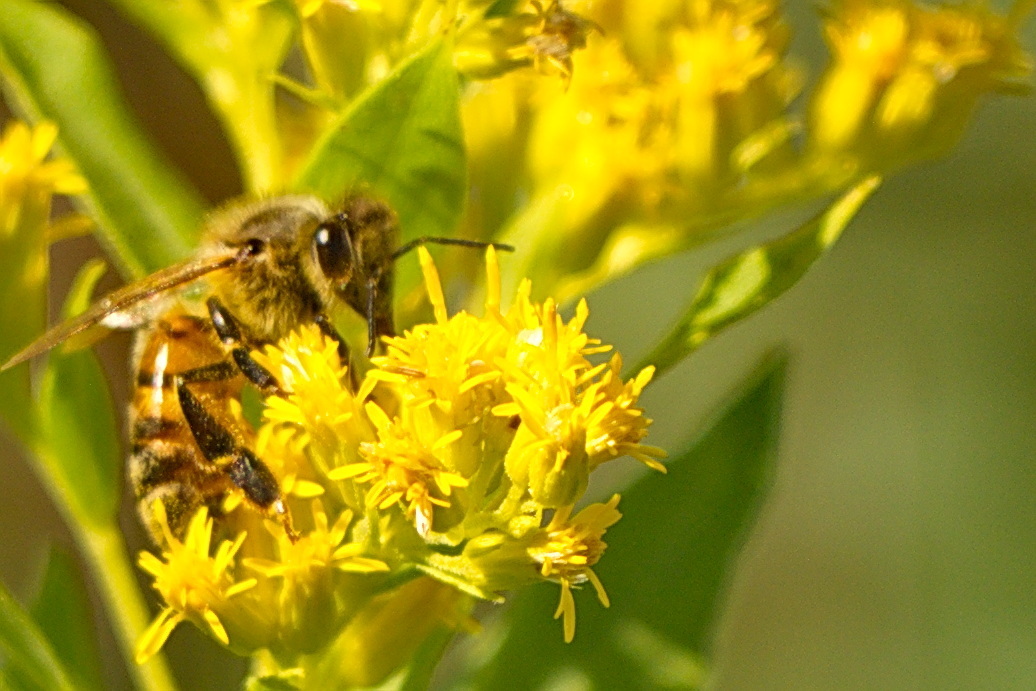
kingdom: Animalia
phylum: Arthropoda
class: Insecta
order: Hymenoptera
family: Apidae
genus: Apis
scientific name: Apis mellifera
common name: Honey bee
